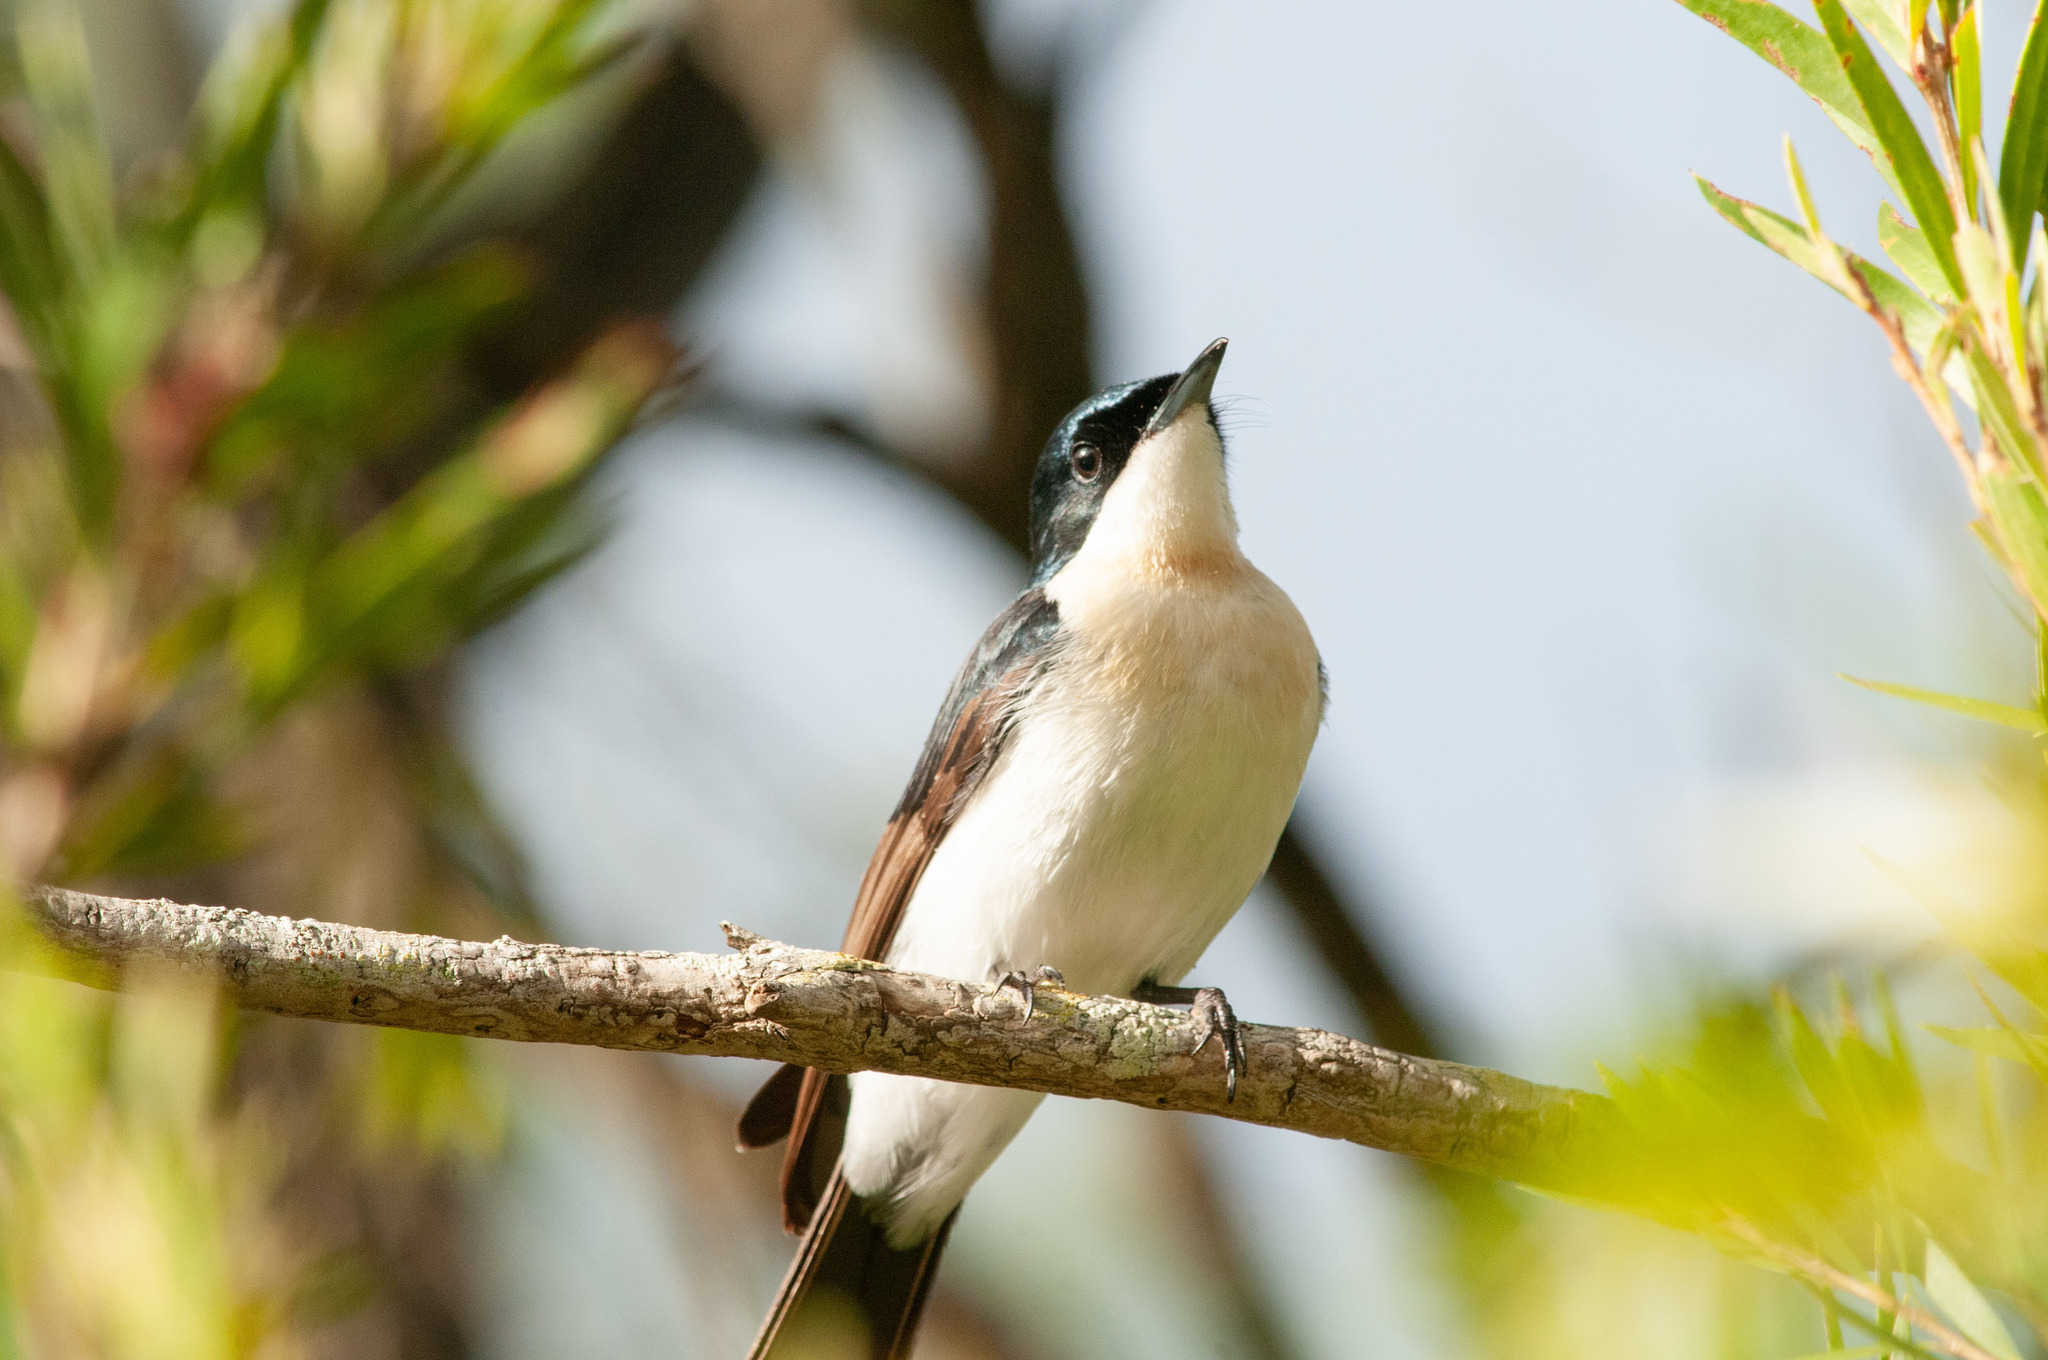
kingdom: Animalia
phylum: Chordata
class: Aves
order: Passeriformes
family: Monarchidae
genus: Myiagra
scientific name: Myiagra inquieta
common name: Restless flycatcher
